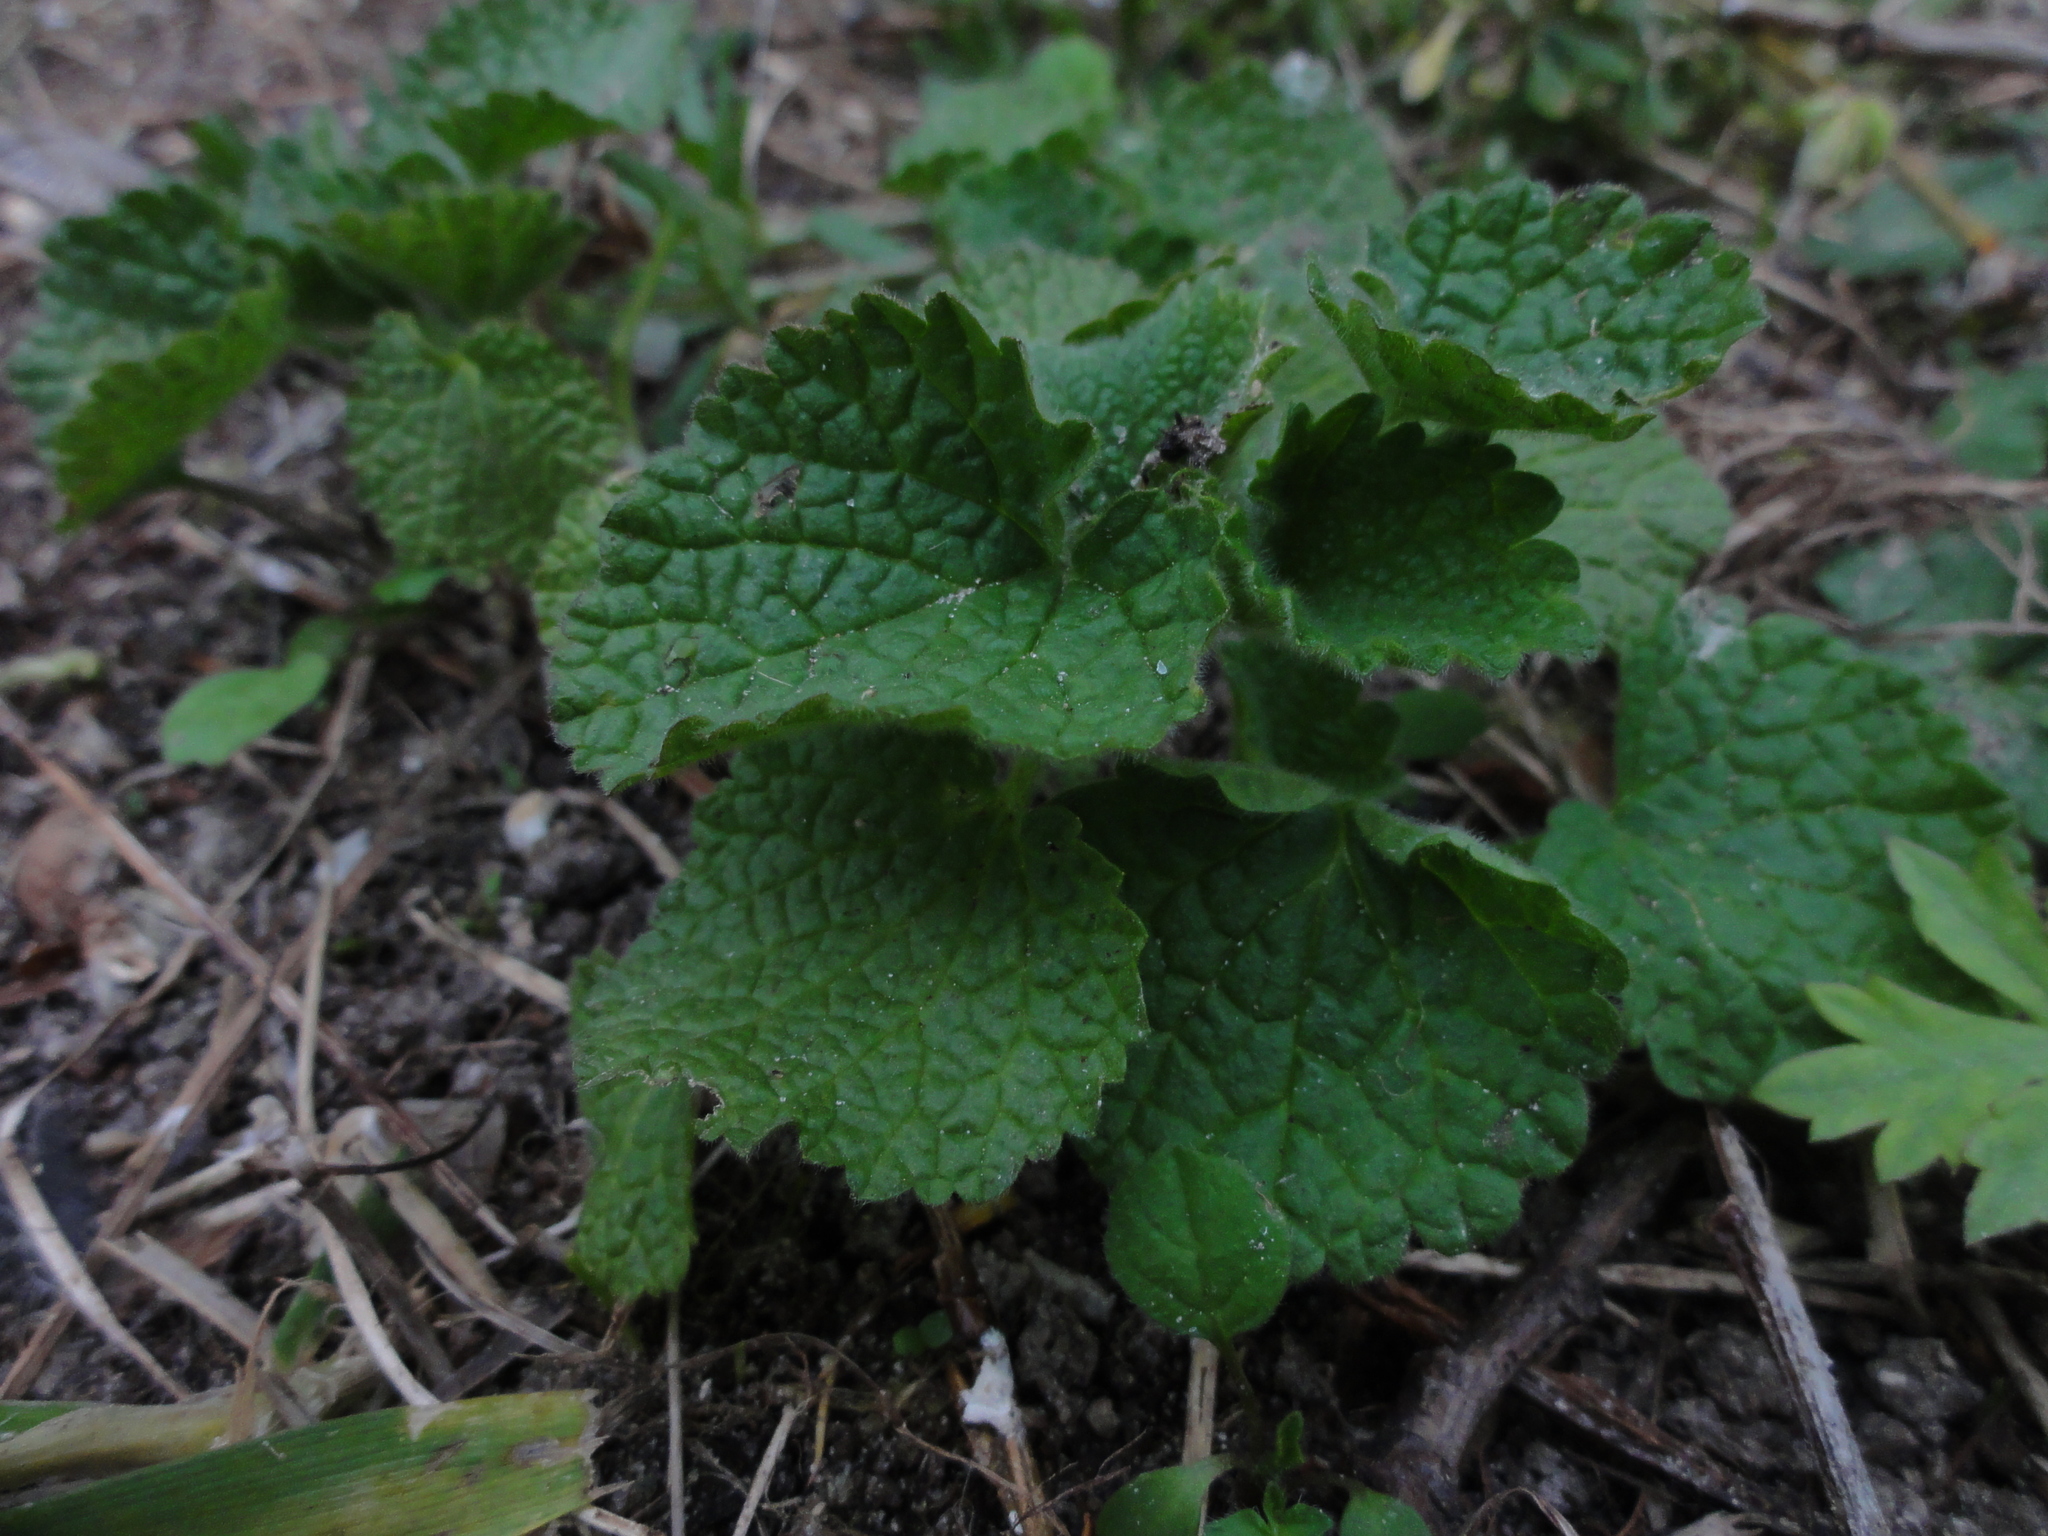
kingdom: Plantae
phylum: Tracheophyta
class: Magnoliopsida
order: Lamiales
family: Lamiaceae
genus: Ballota
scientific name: Ballota nigra
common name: Black horehound
